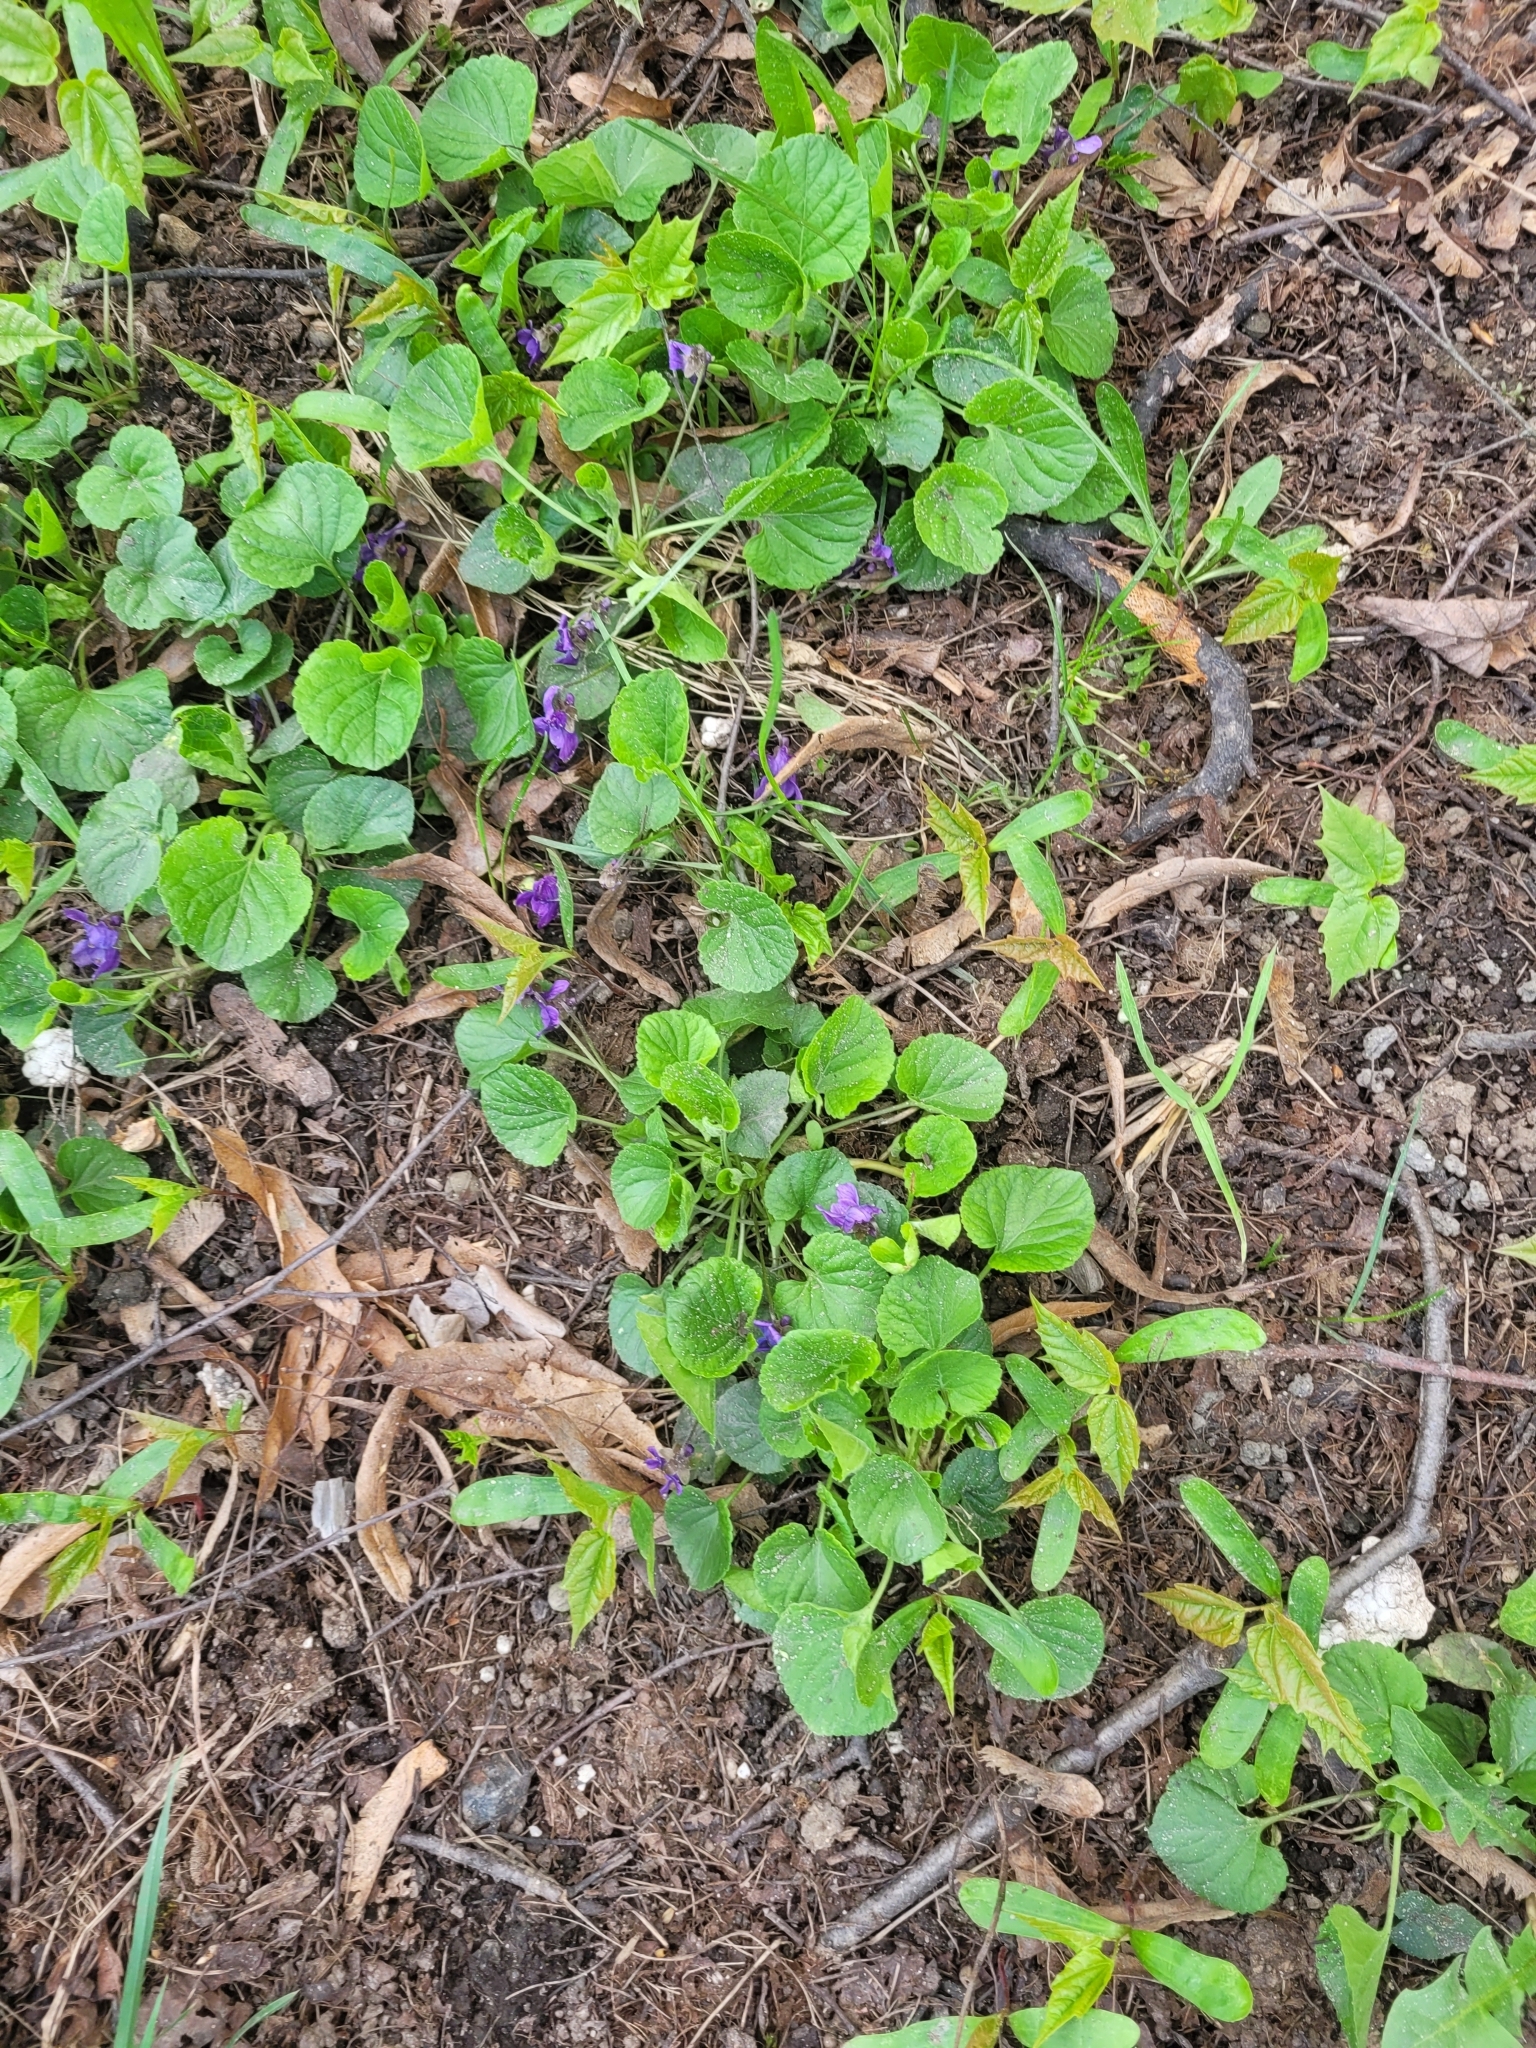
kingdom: Plantae
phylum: Tracheophyta
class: Magnoliopsida
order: Malpighiales
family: Violaceae
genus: Viola
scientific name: Viola odorata
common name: Sweet violet
